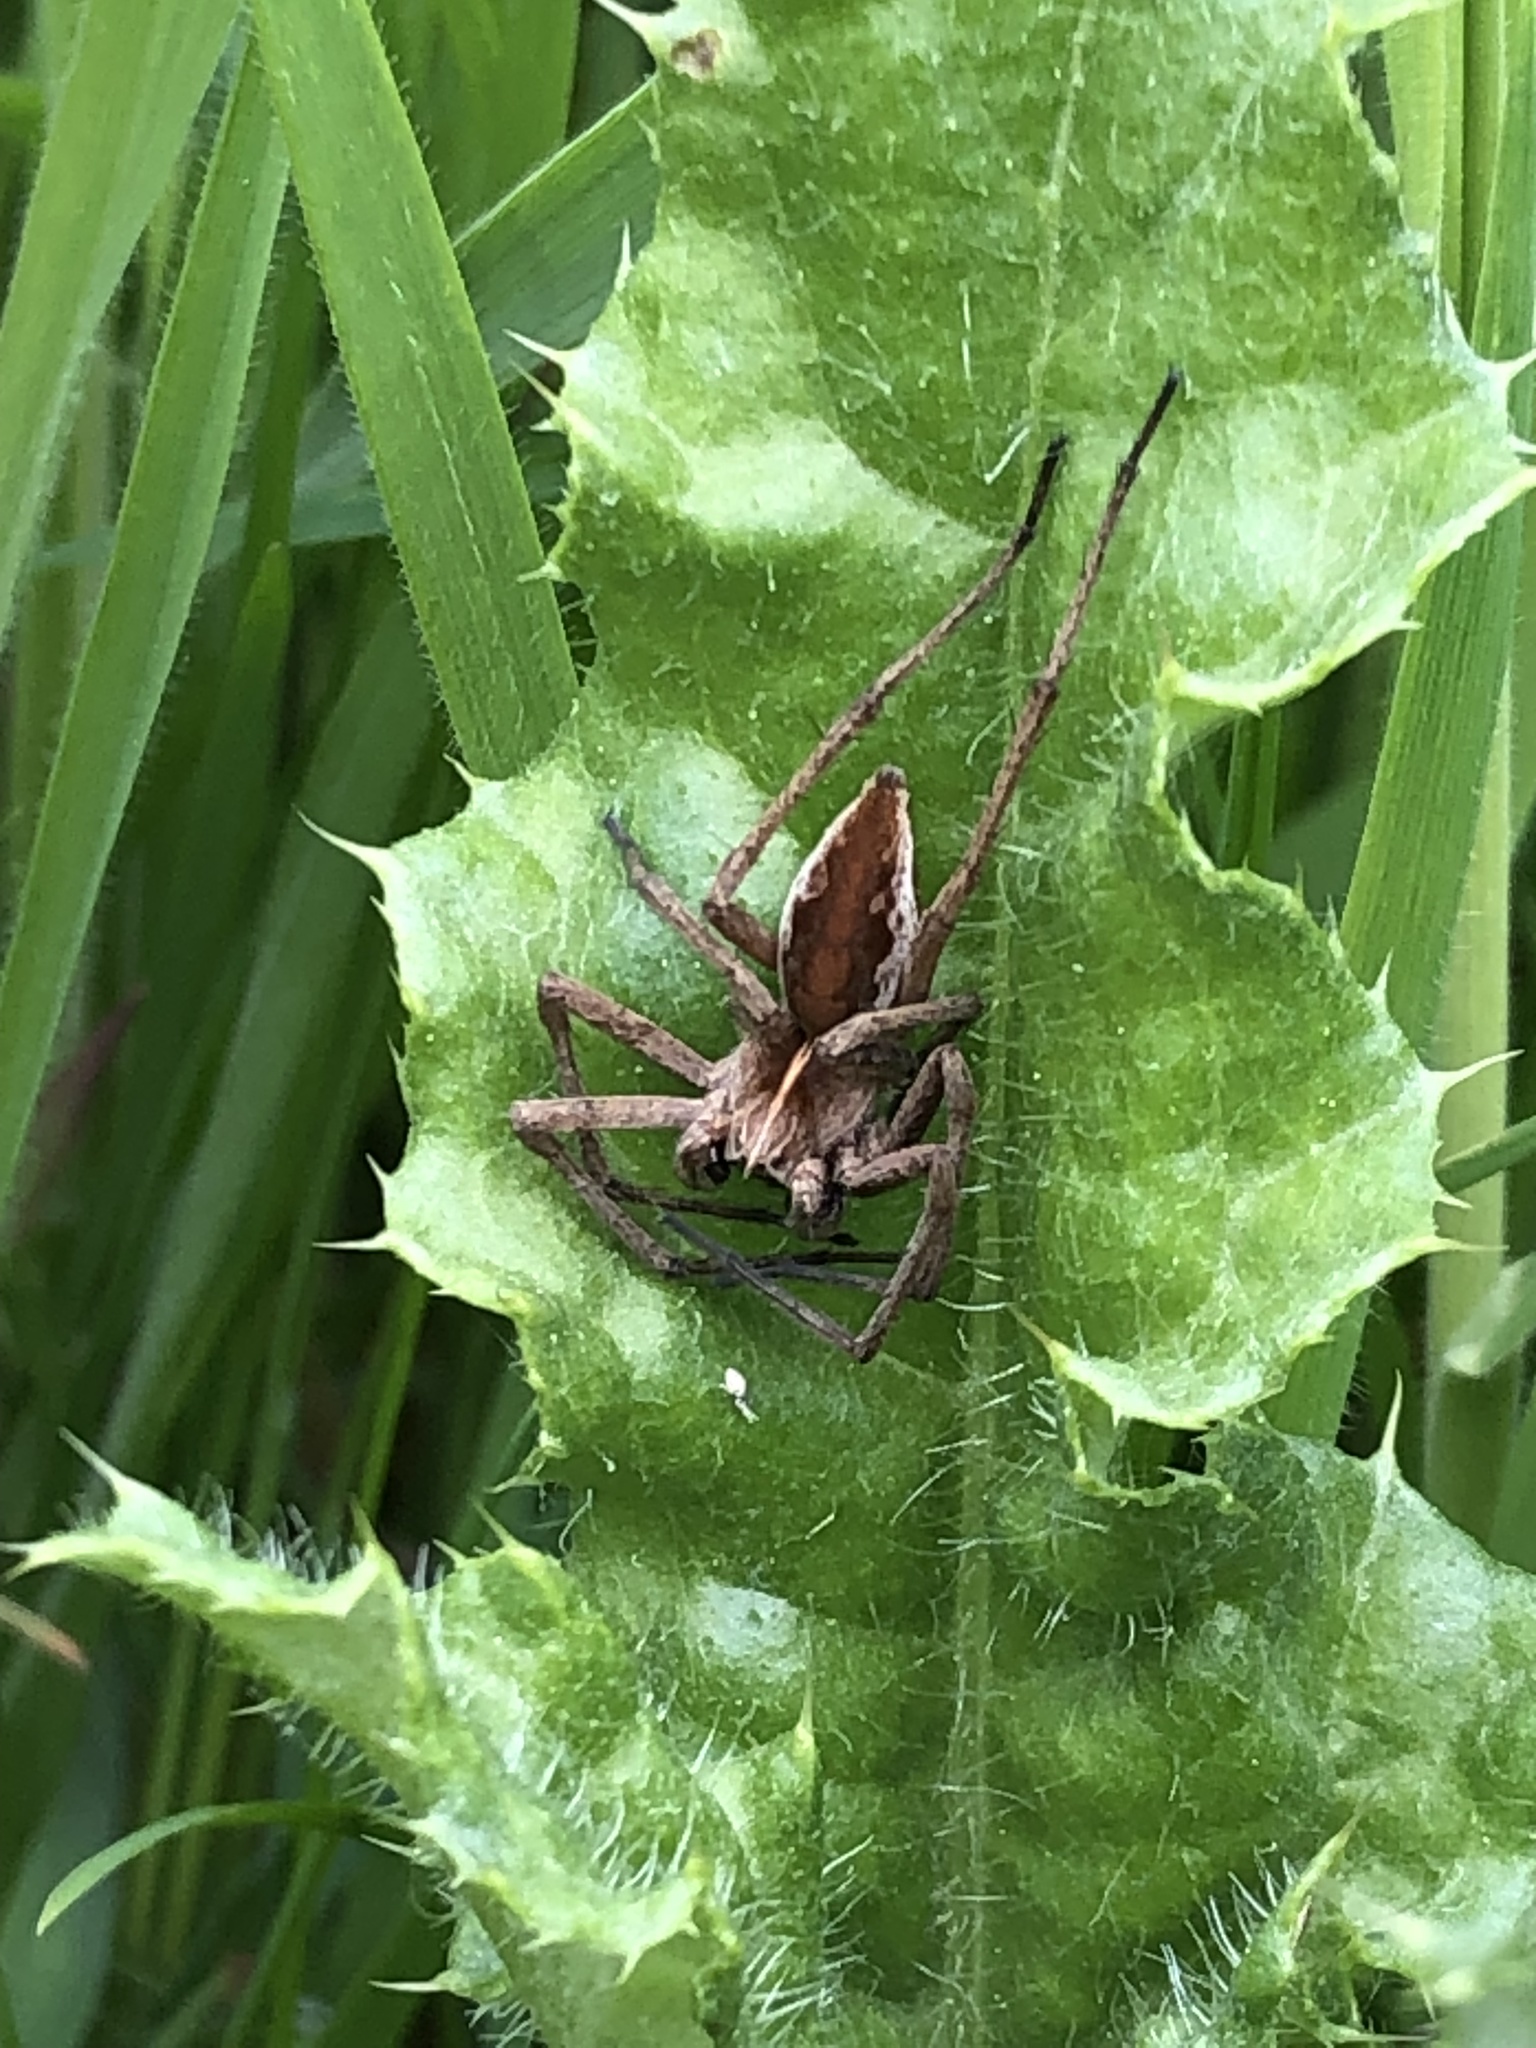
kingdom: Animalia
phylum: Arthropoda
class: Arachnida
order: Araneae
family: Pisauridae
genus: Pisaura
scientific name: Pisaura mirabilis
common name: Tent spider
